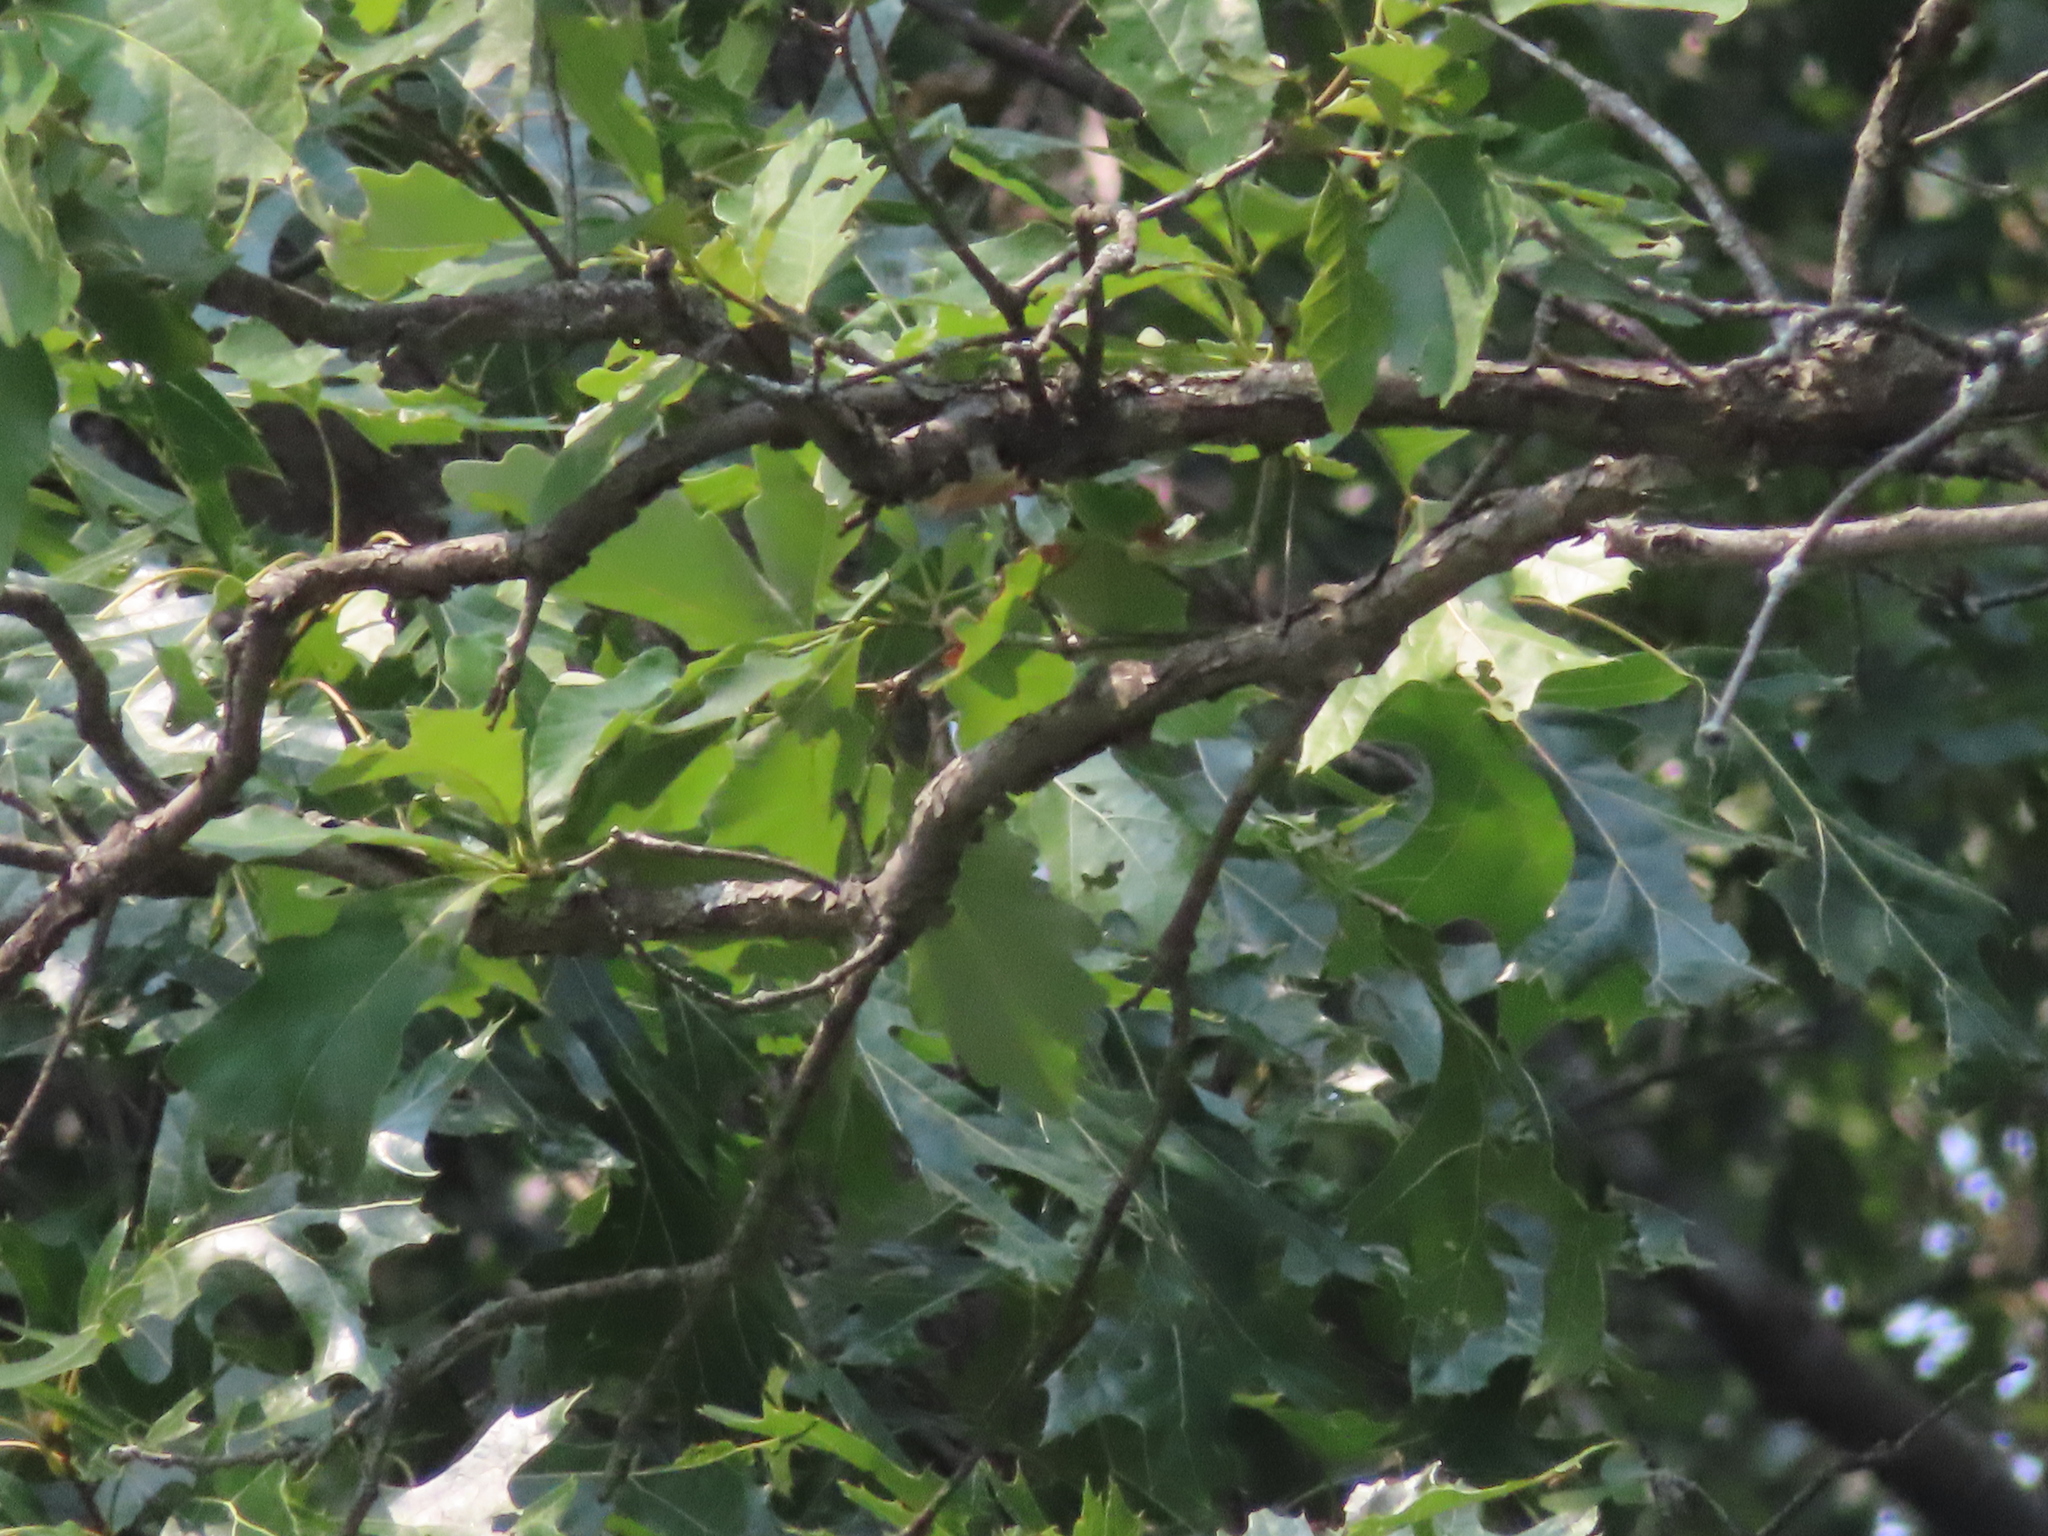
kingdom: Plantae
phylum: Tracheophyta
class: Magnoliopsida
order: Fagales
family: Fagaceae
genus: Quercus
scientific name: Quercus bicolor
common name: Swamp white oak
